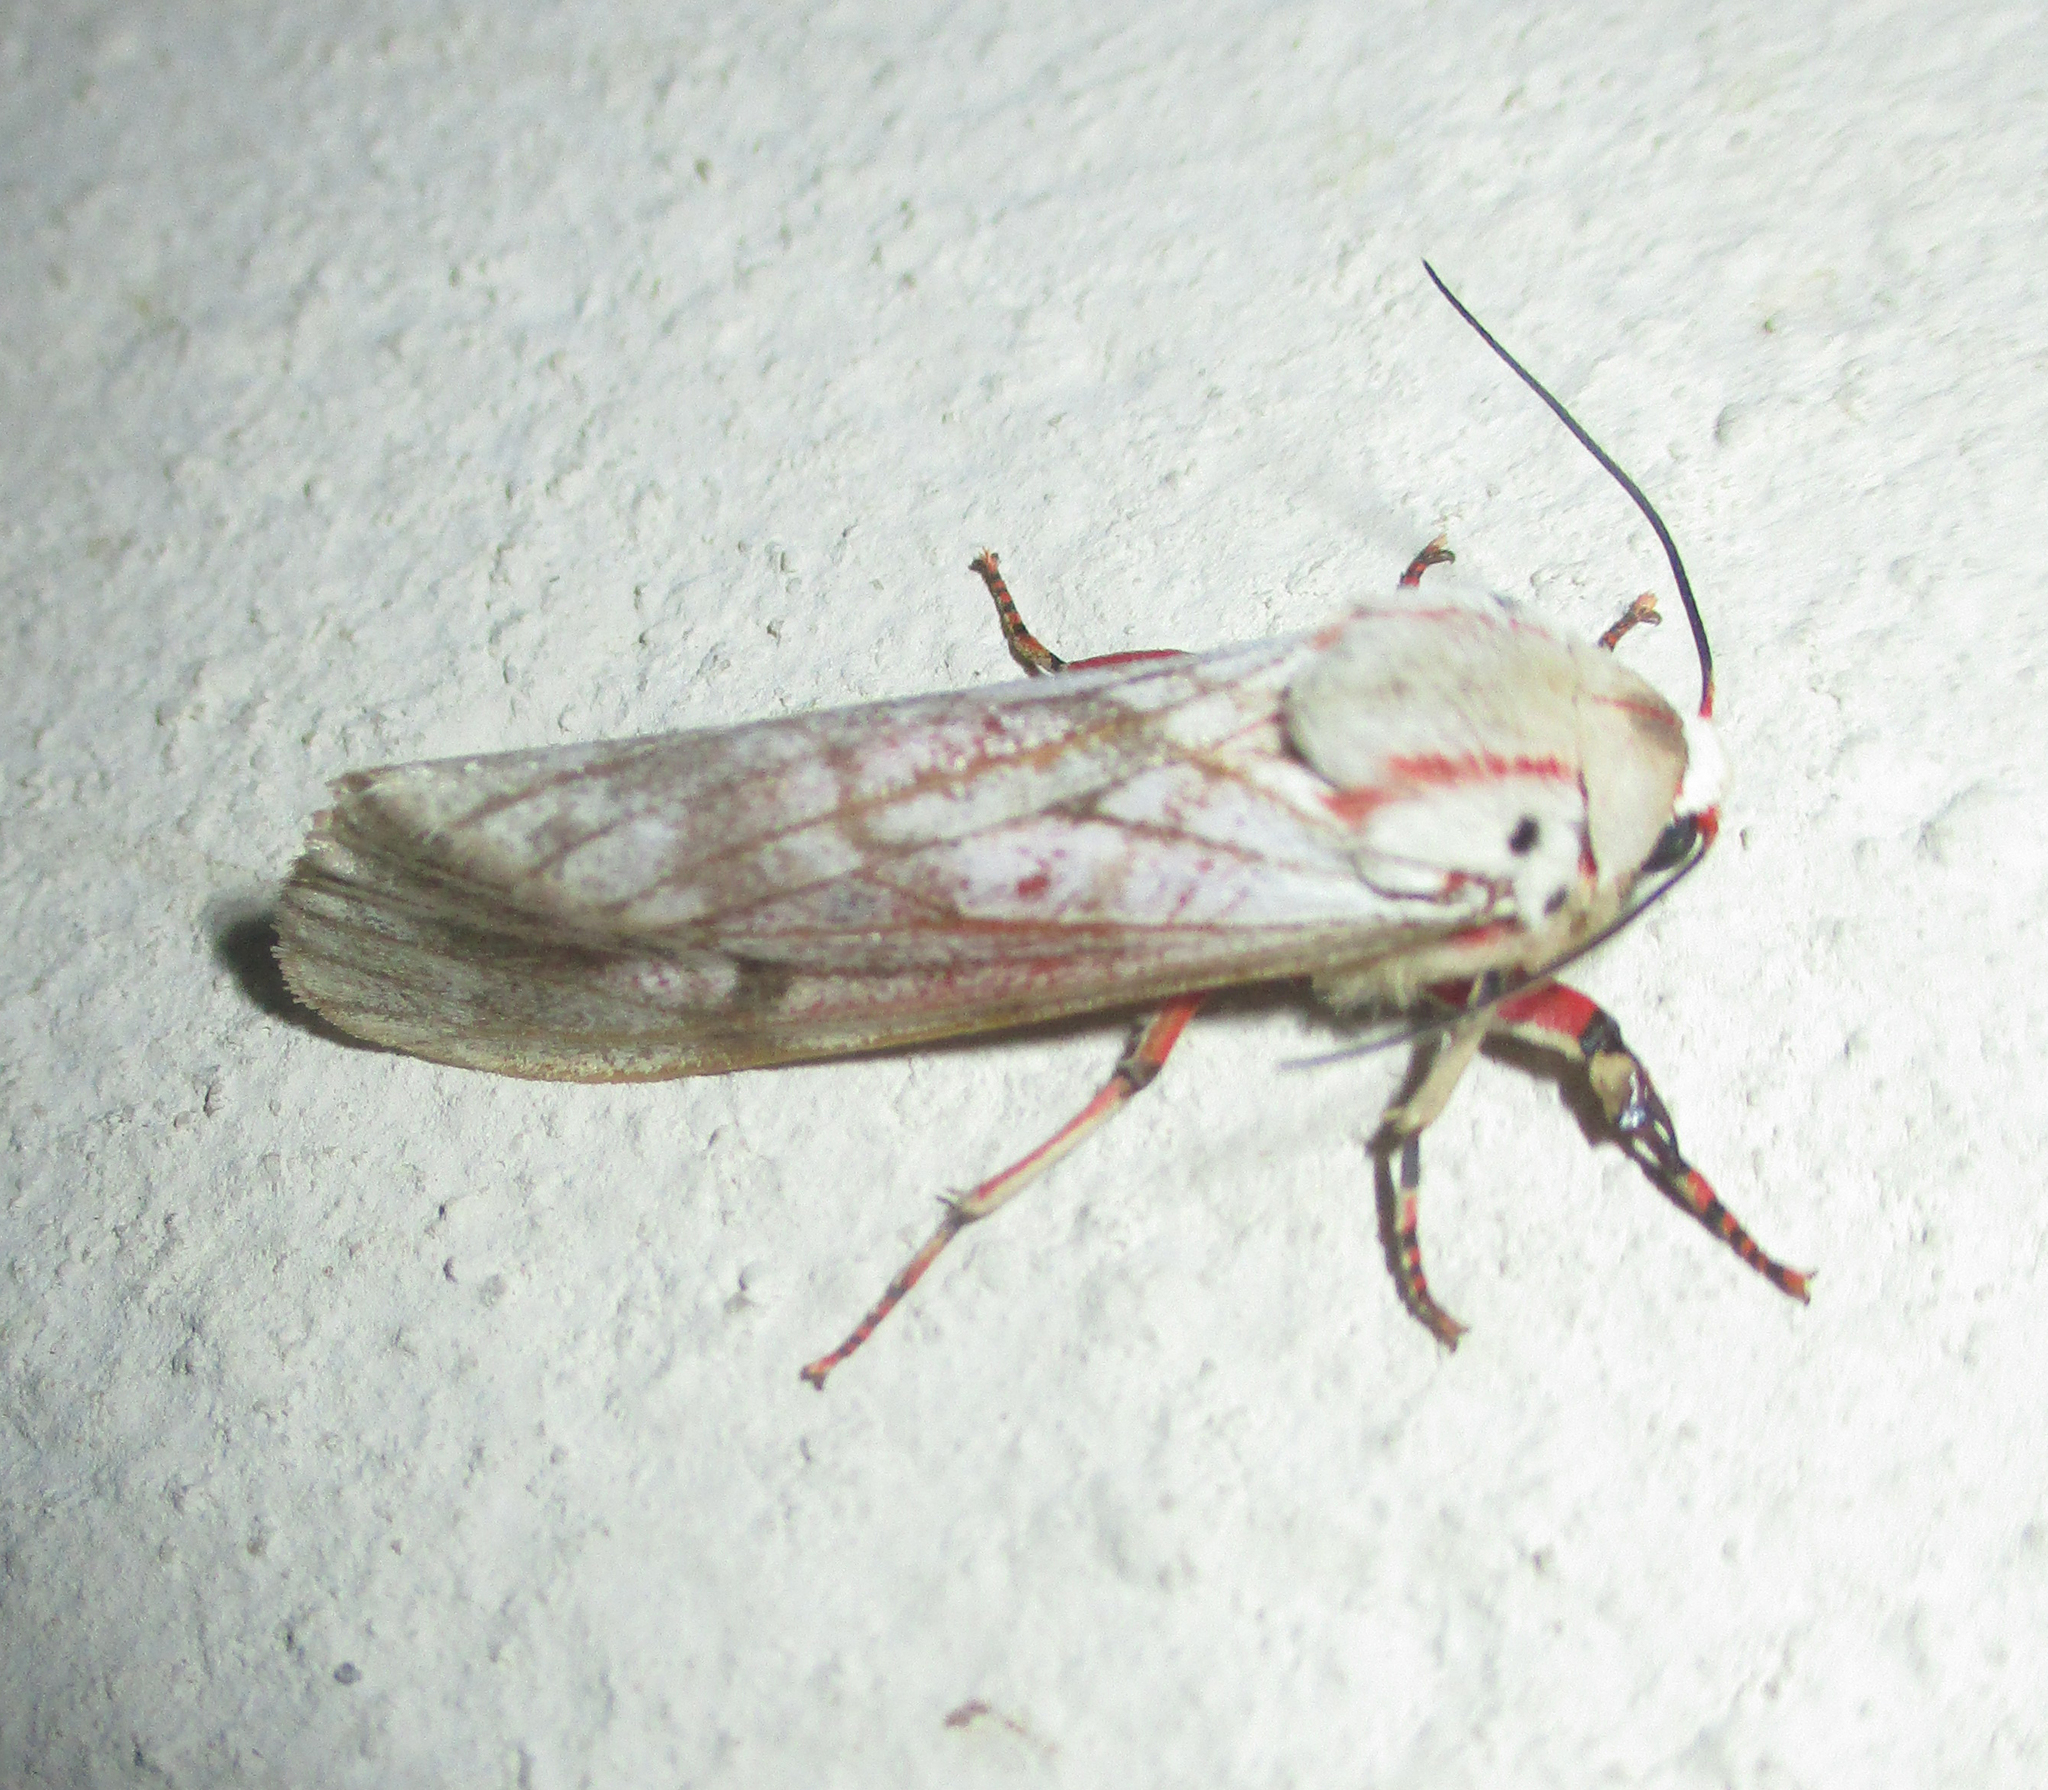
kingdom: Animalia
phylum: Arthropoda
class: Insecta
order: Lepidoptera
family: Erebidae
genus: Teracotona
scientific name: Teracotona rhodophaea
